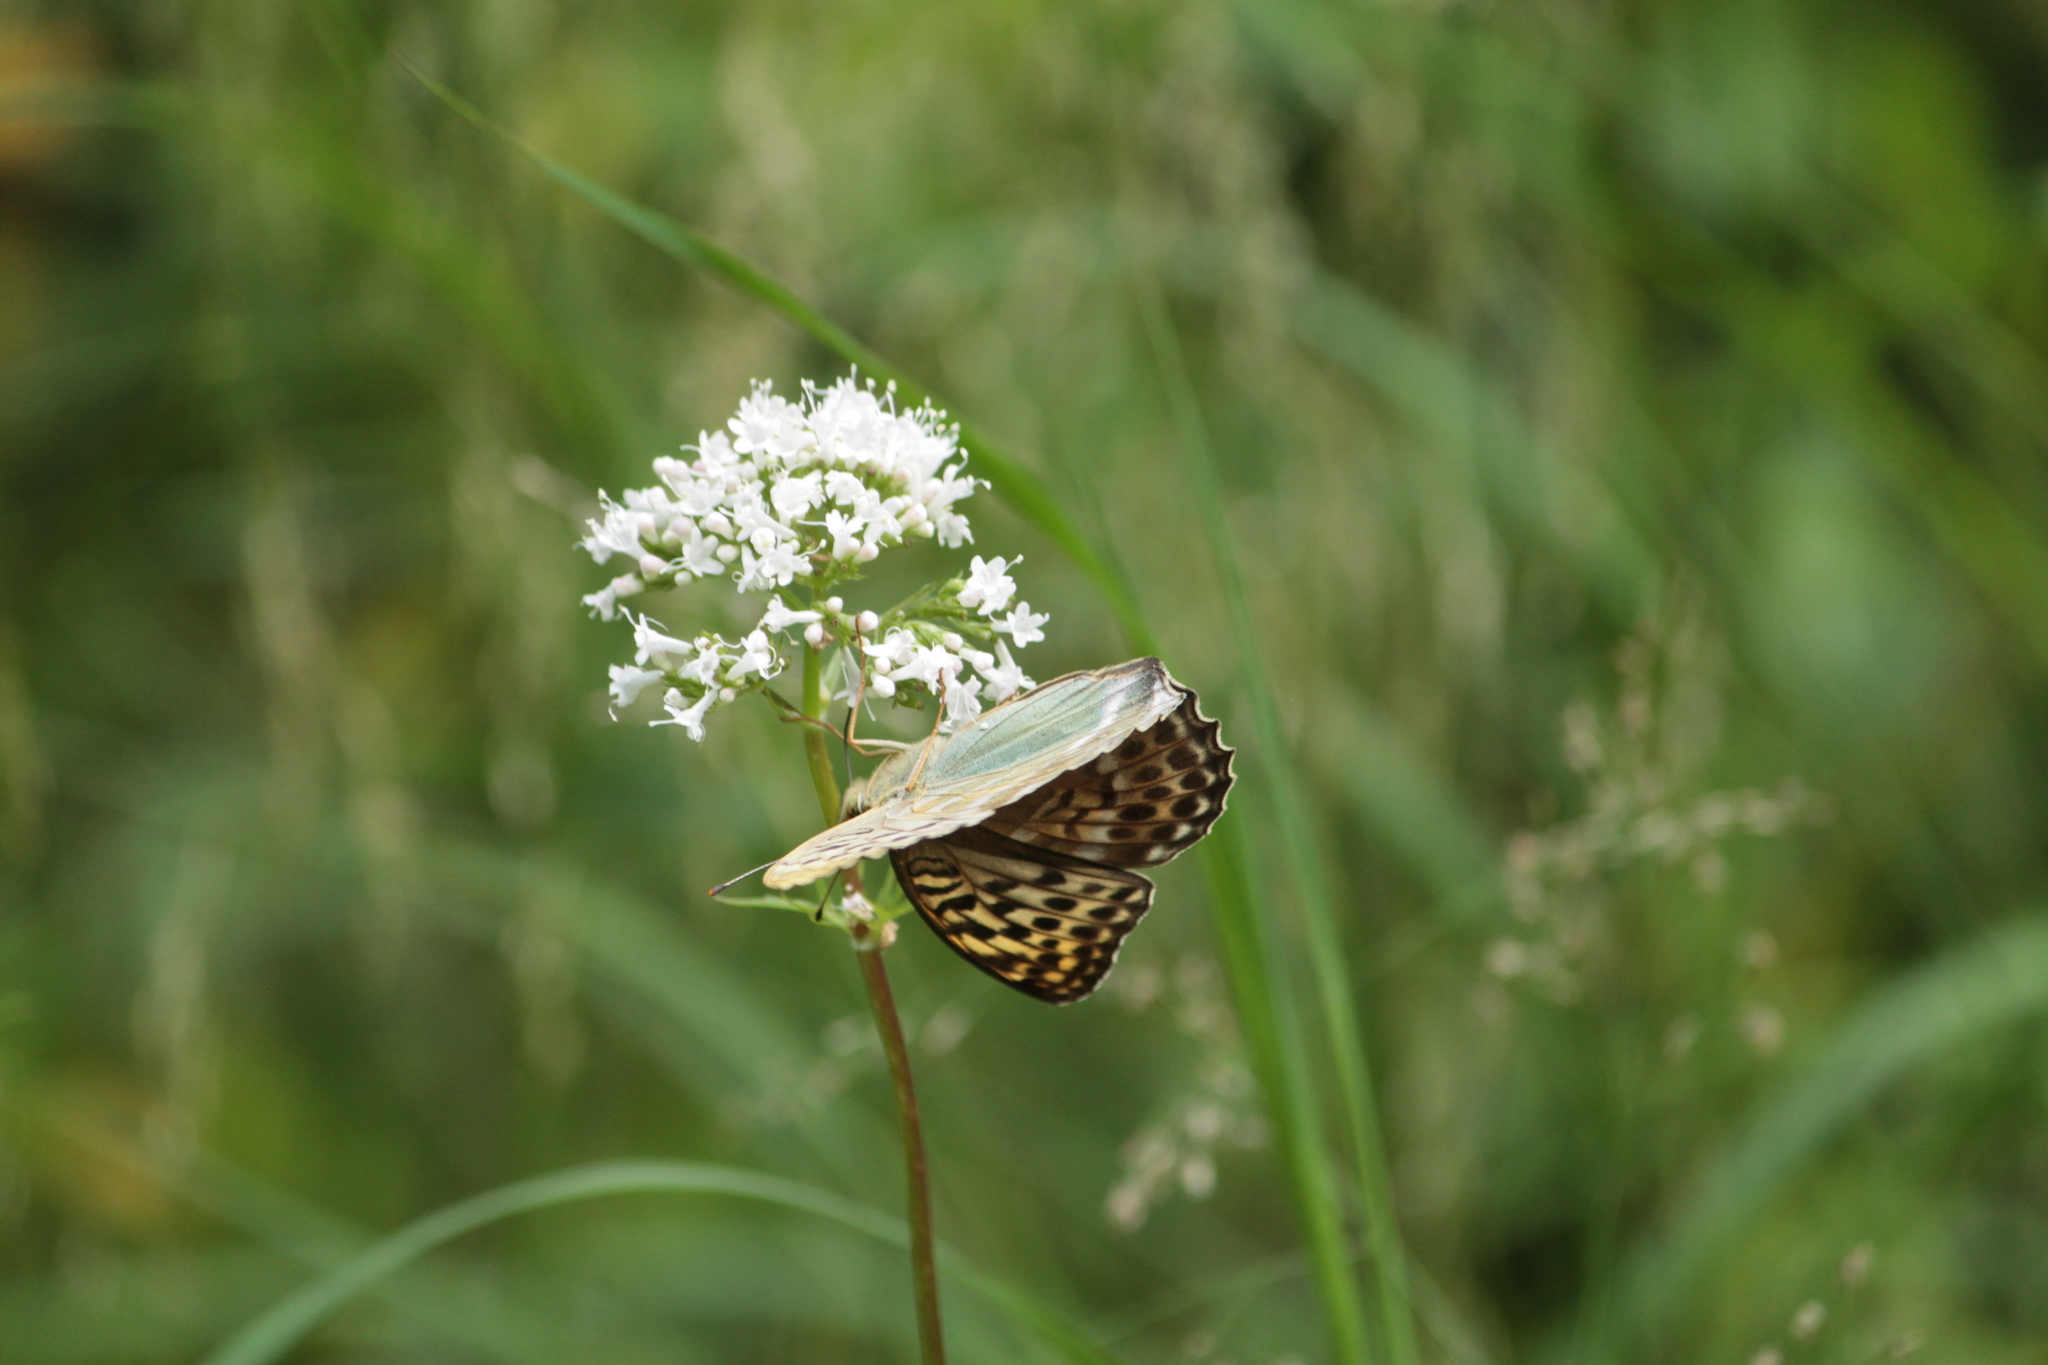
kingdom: Animalia
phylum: Arthropoda
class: Insecta
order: Lepidoptera
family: Nymphalidae
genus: Argynnis
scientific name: Argynnis paphia
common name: Silver-washed fritillary
